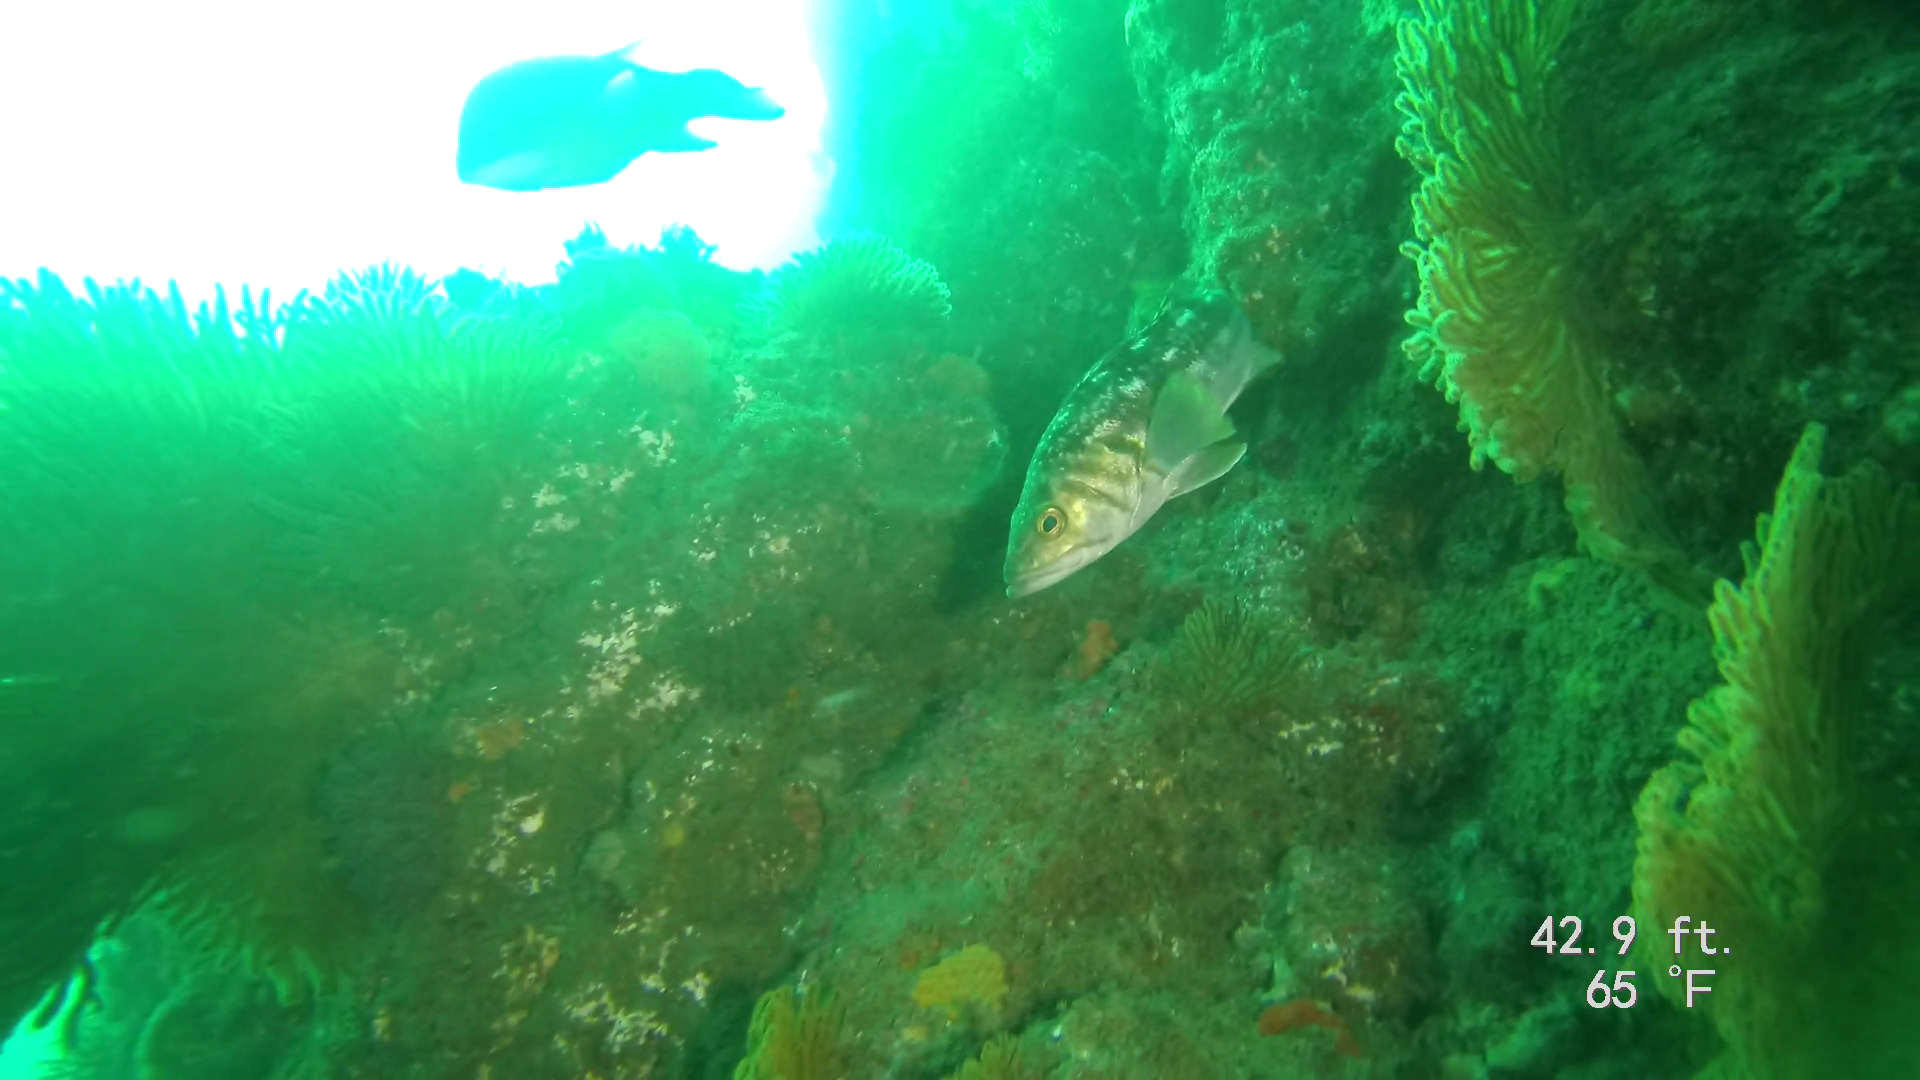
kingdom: Animalia
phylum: Chordata
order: Perciformes
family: Serranidae
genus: Paralabrax
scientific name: Paralabrax clathratus
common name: Kelp bass
